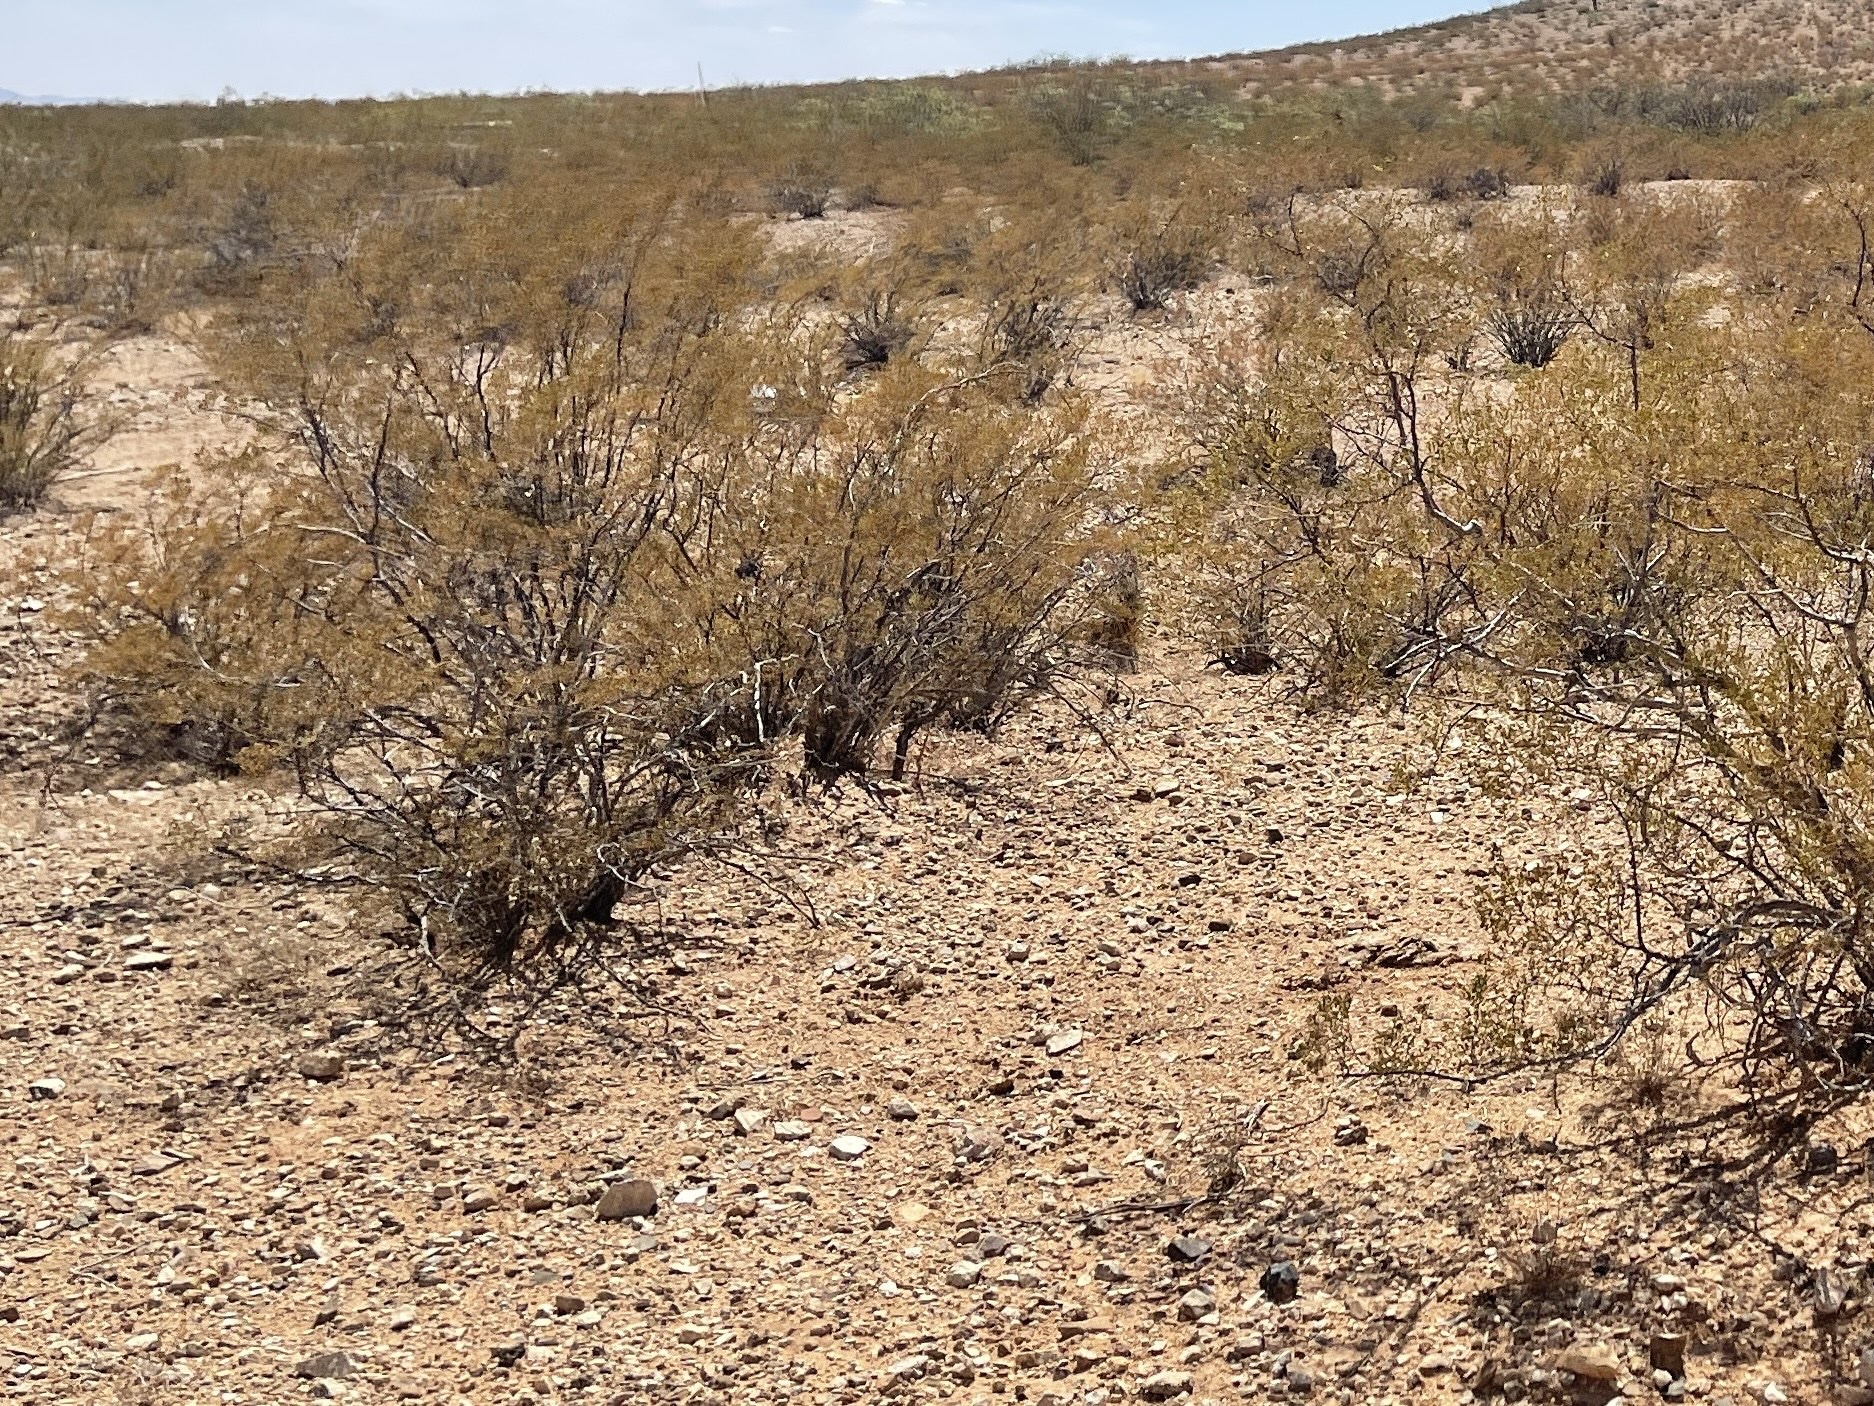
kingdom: Plantae
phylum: Tracheophyta
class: Magnoliopsida
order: Zygophyllales
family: Zygophyllaceae
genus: Larrea
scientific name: Larrea tridentata
